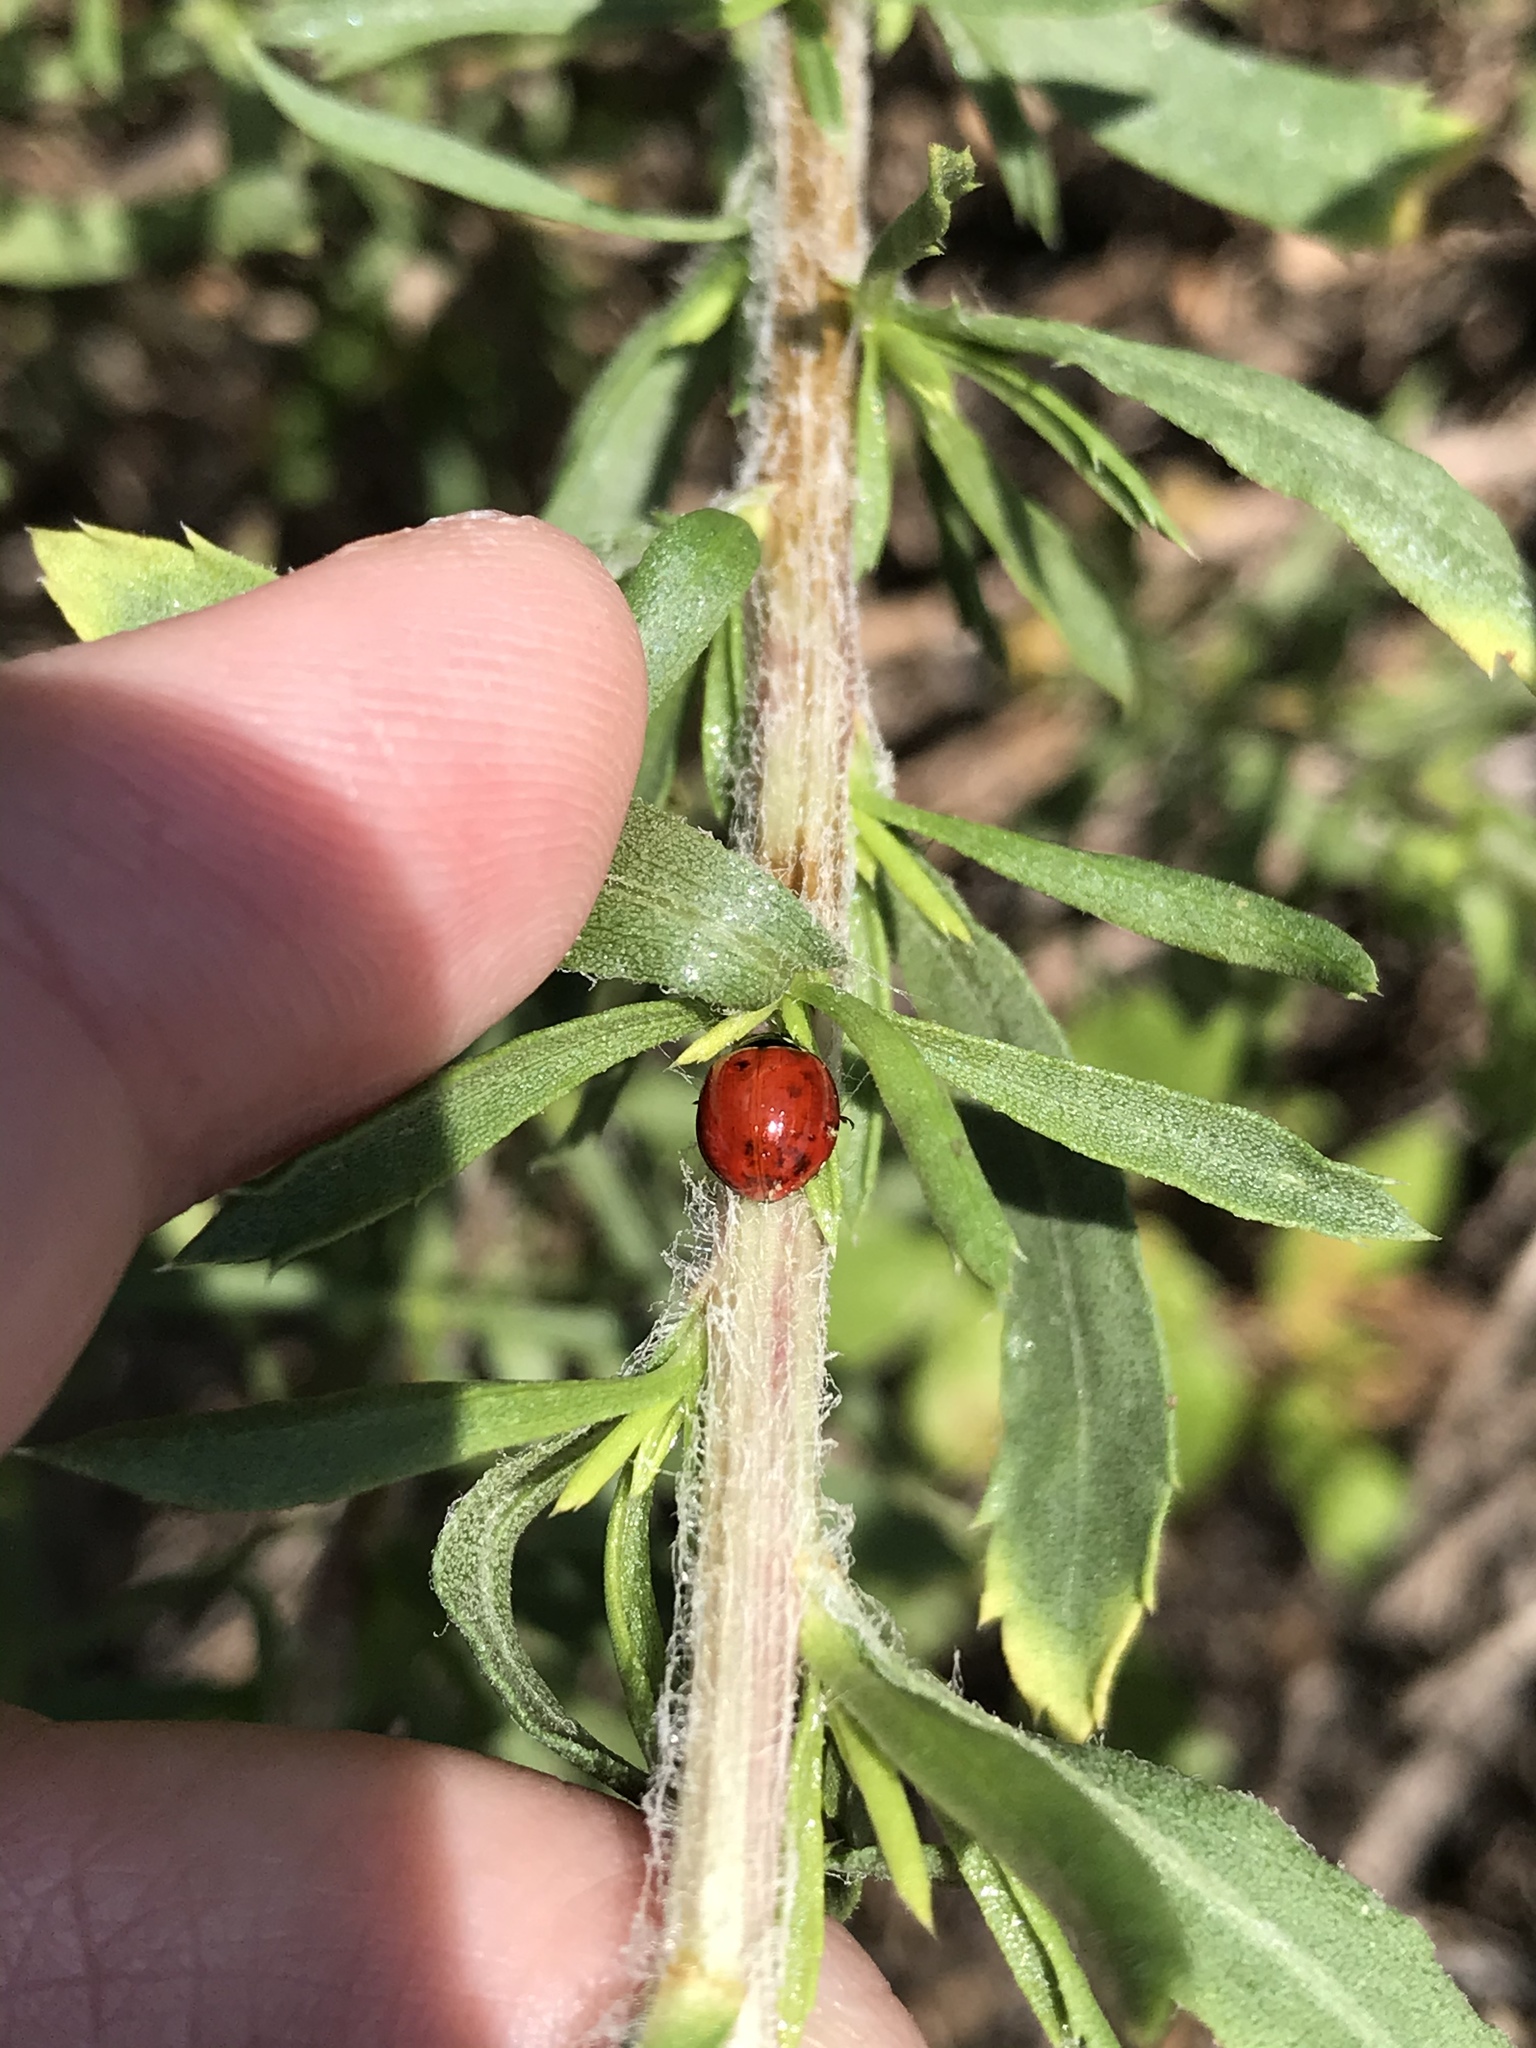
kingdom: Animalia
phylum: Arthropoda
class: Insecta
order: Coleoptera
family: Coccinellidae
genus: Cycloneda
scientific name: Cycloneda sanguinea
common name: Ladybird beetle
